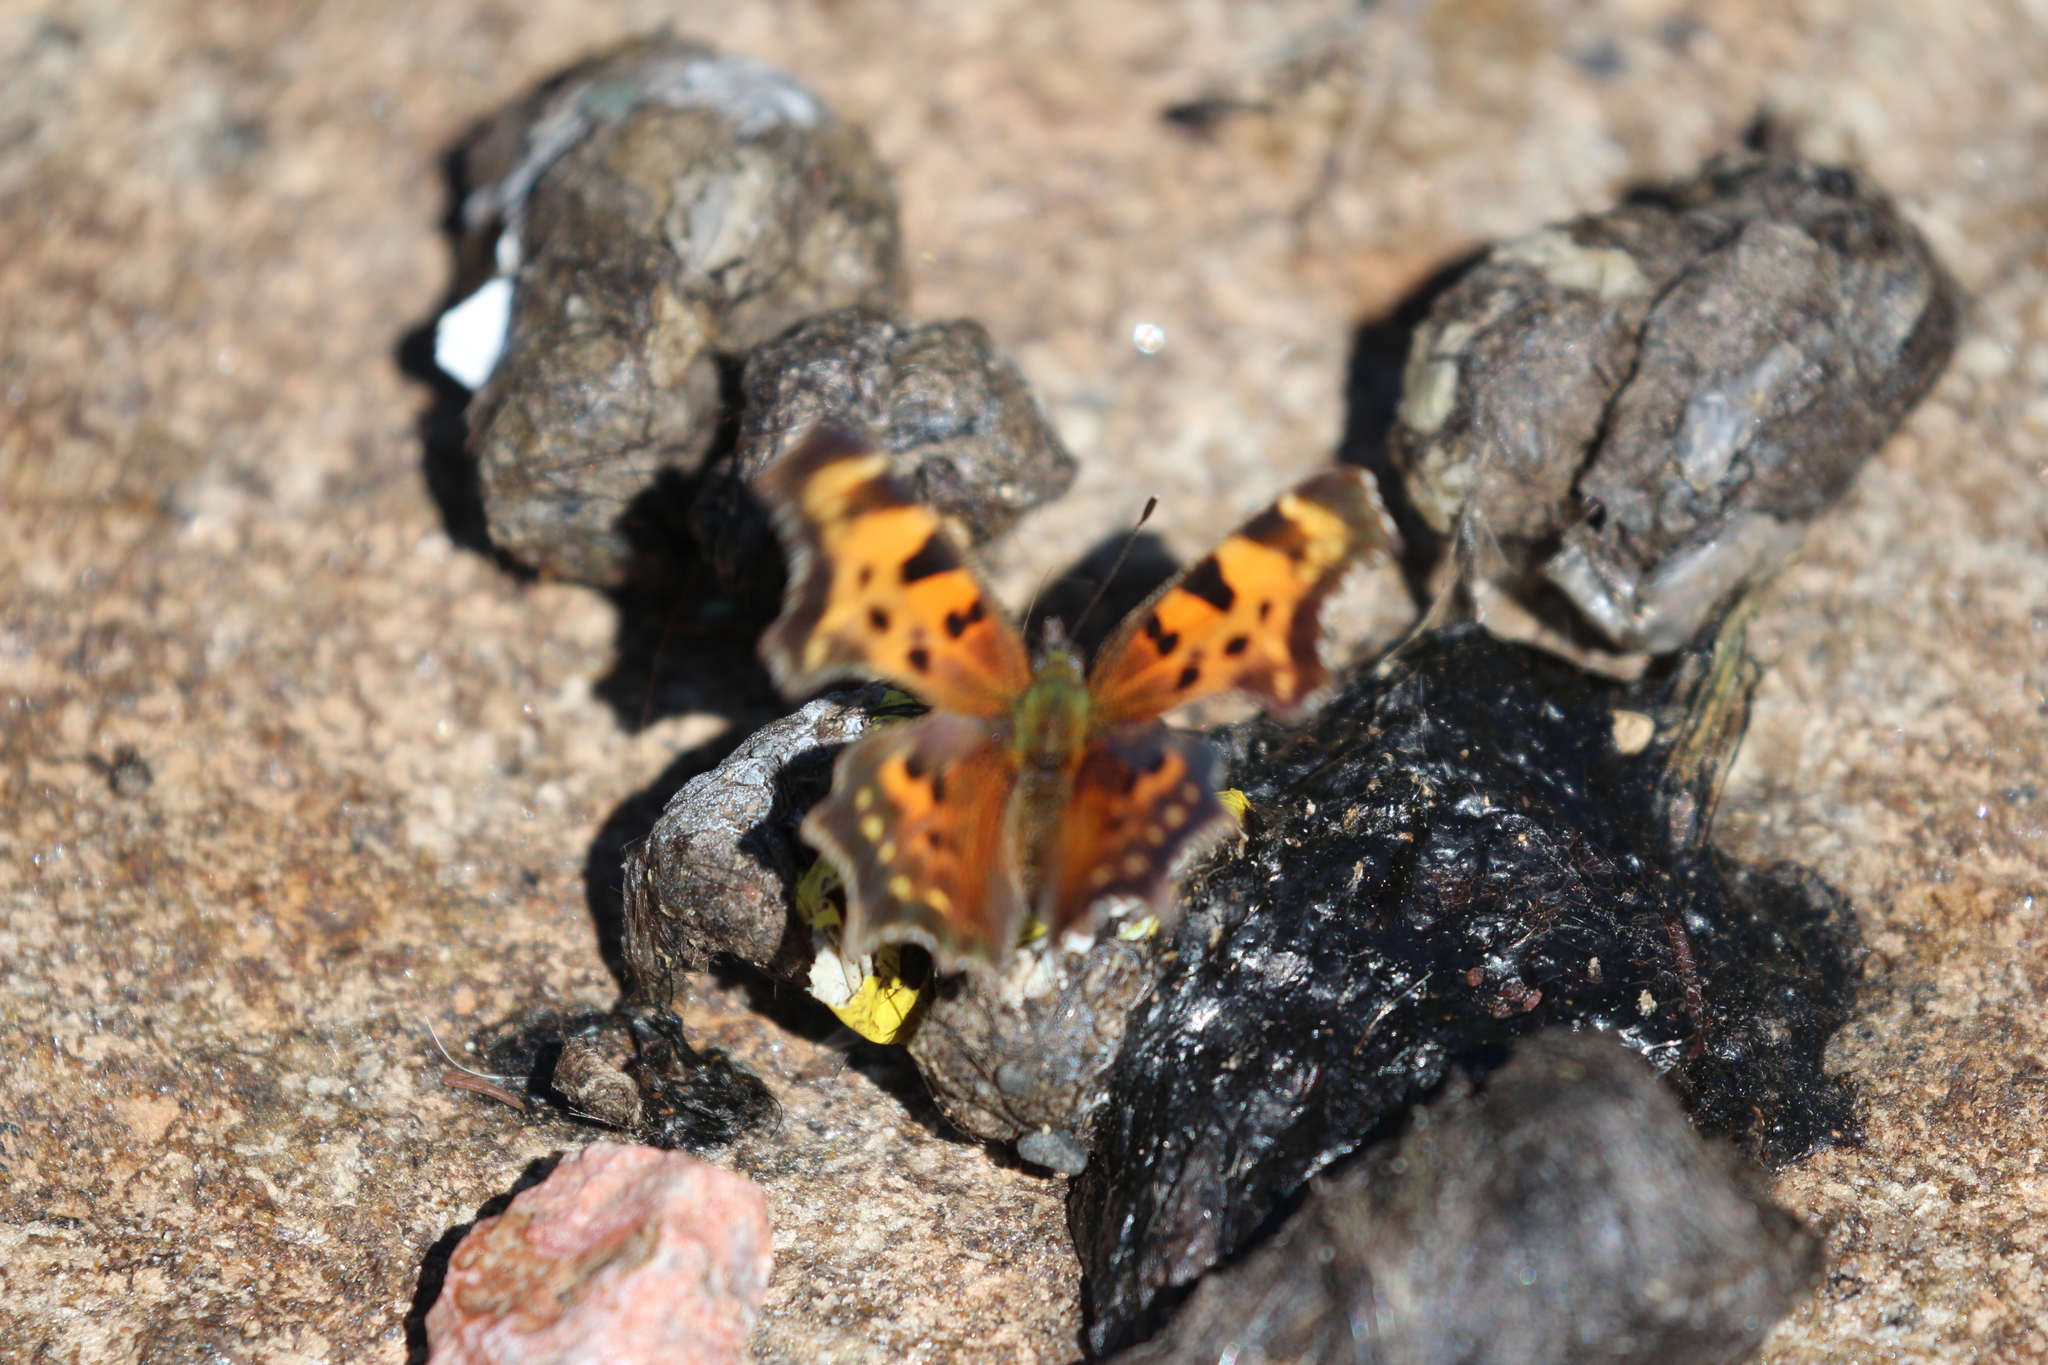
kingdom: Animalia
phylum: Arthropoda
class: Insecta
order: Lepidoptera
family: Nymphalidae
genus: Polygonia
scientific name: Polygonia faunus
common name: Green comma
